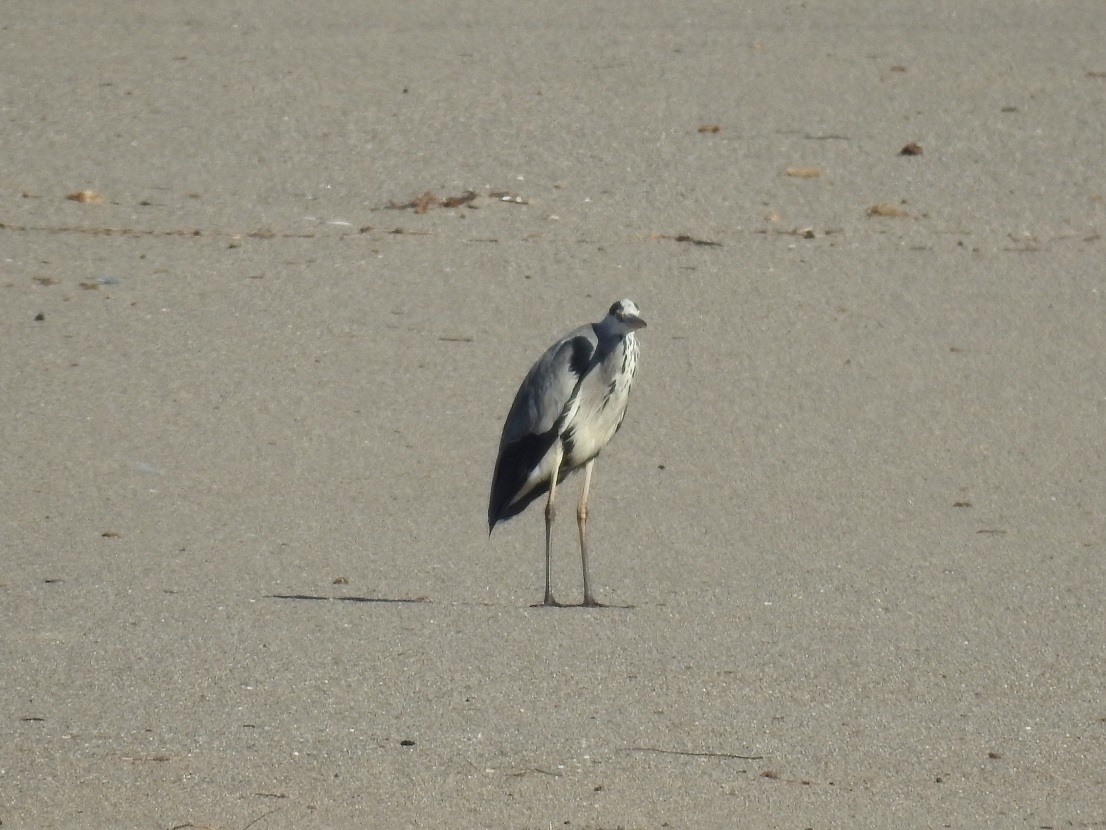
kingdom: Animalia
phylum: Chordata
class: Aves
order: Pelecaniformes
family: Ardeidae
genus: Ardea
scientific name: Ardea cinerea
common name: Grey heron
